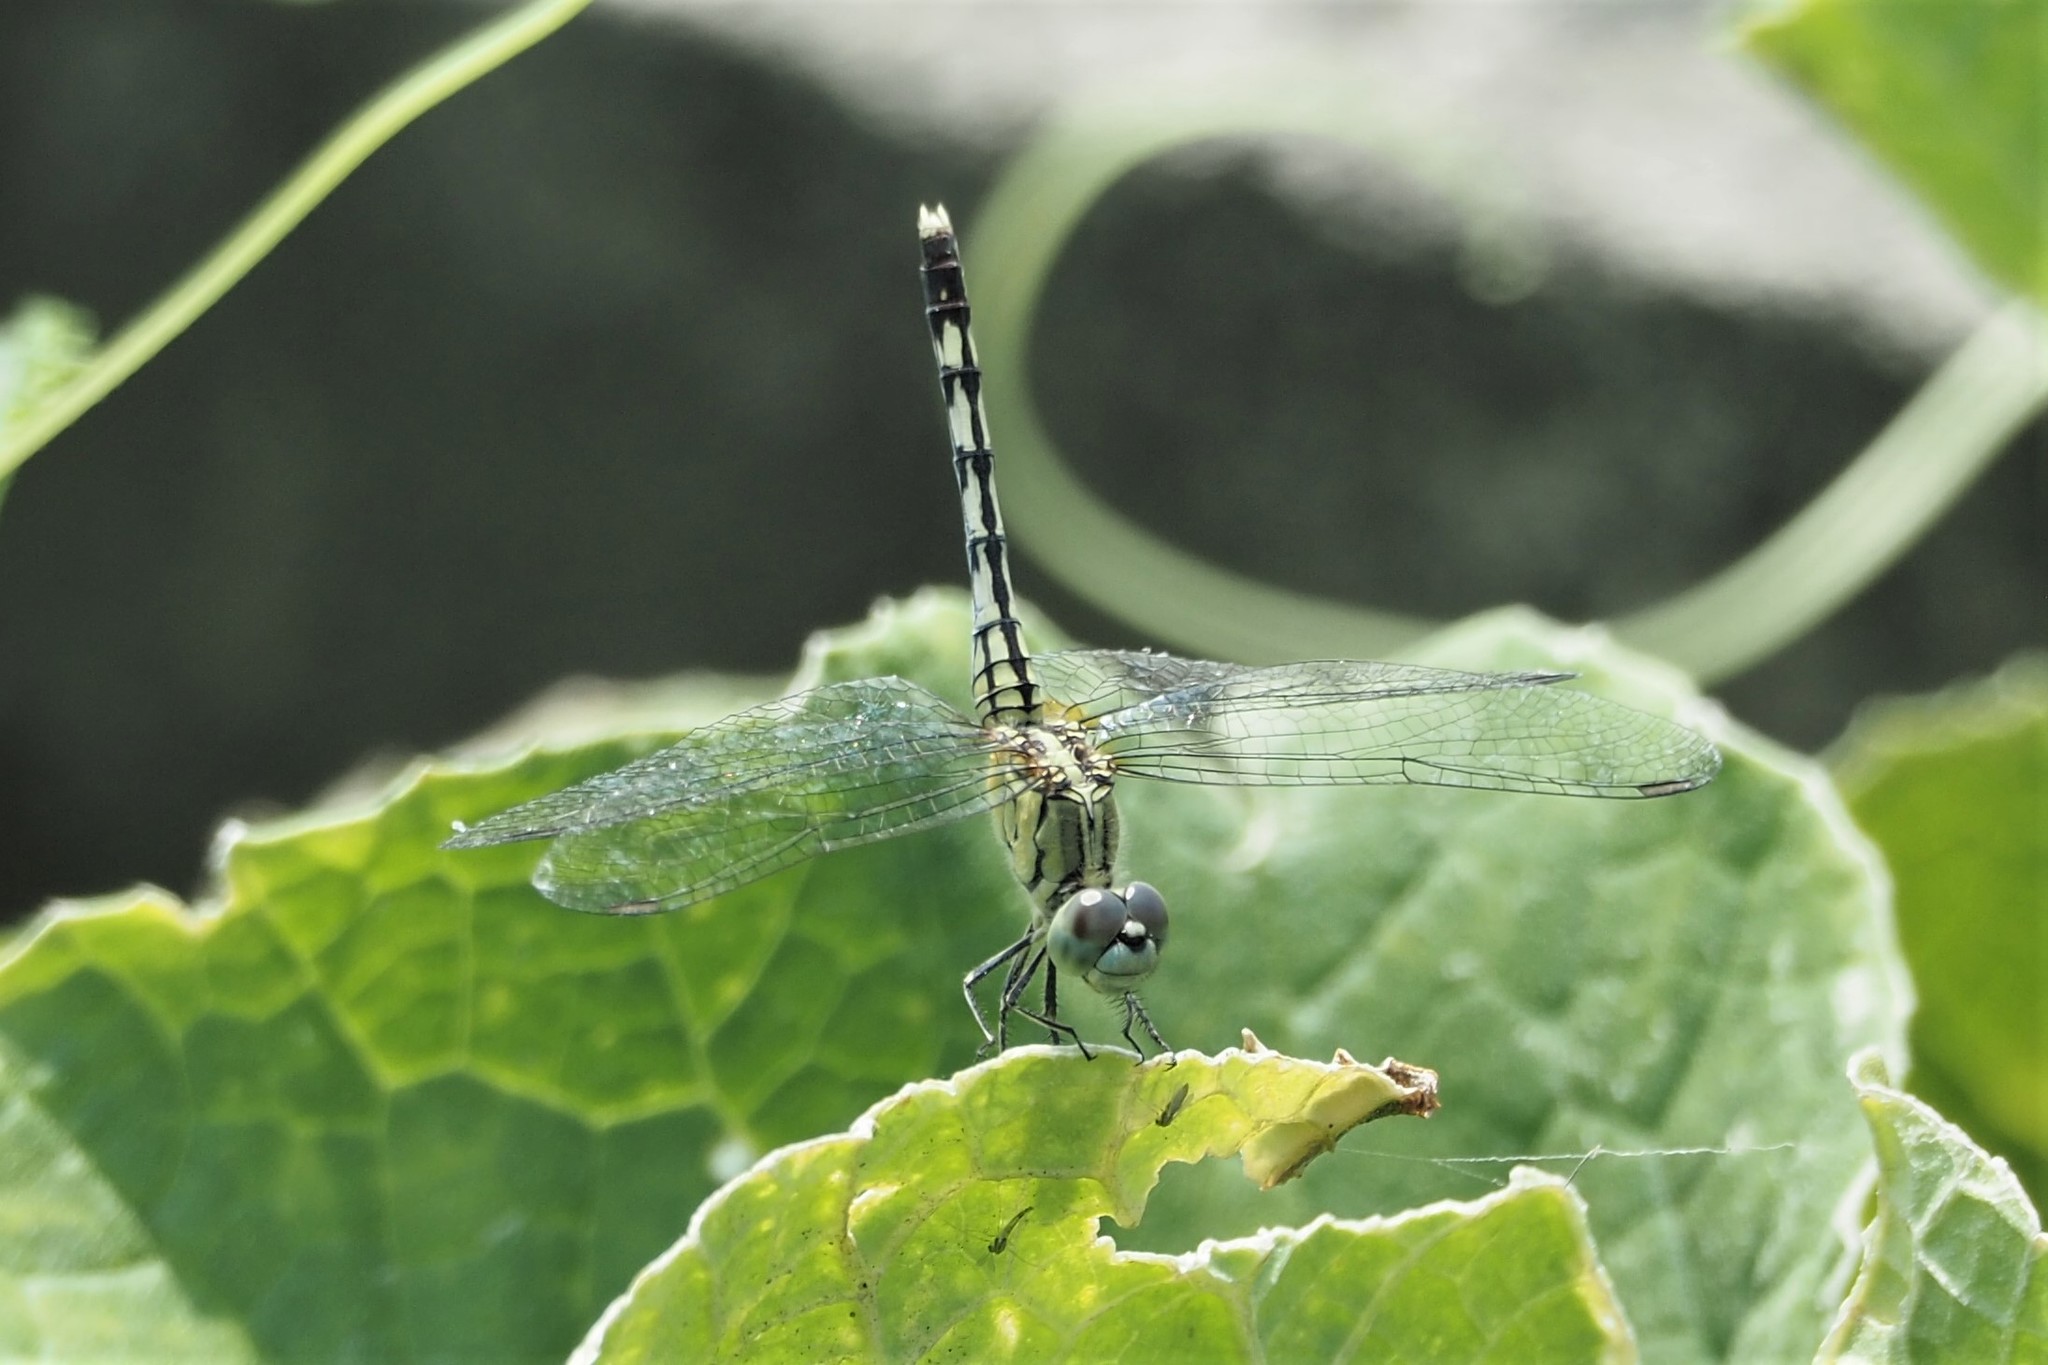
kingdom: Animalia
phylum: Arthropoda
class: Insecta
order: Odonata
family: Libellulidae
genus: Diplacodes
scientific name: Diplacodes trivialis
